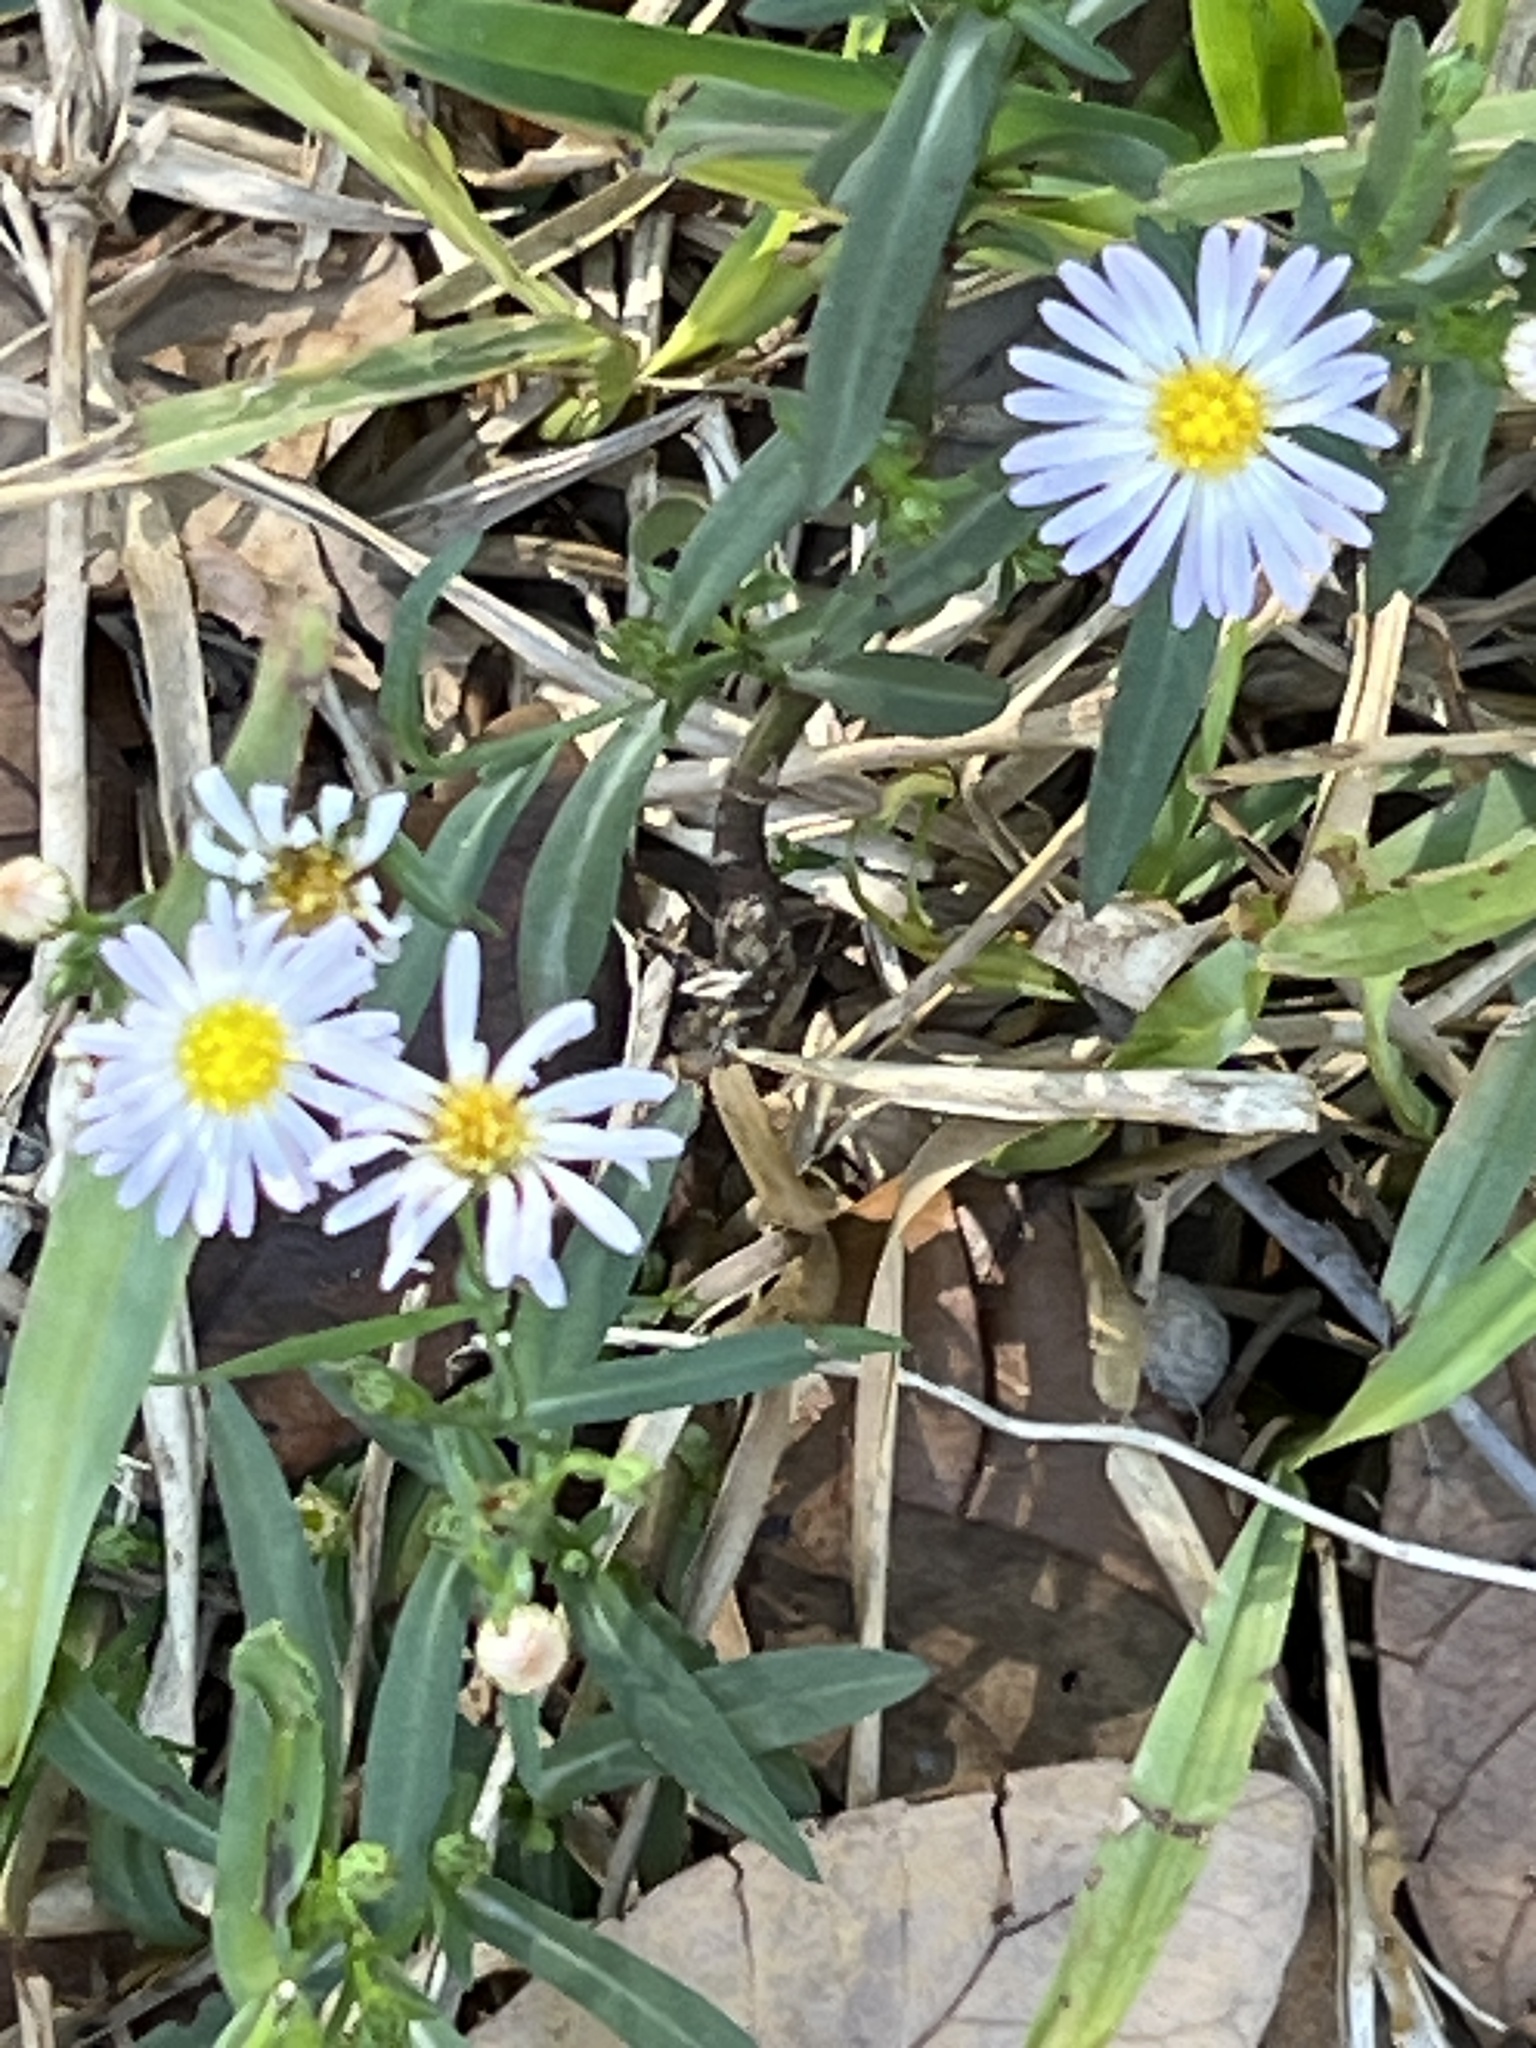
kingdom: Plantae
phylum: Tracheophyta
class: Magnoliopsida
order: Asterales
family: Asteraceae
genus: Symphyotrichum
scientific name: Symphyotrichum divaricatum
